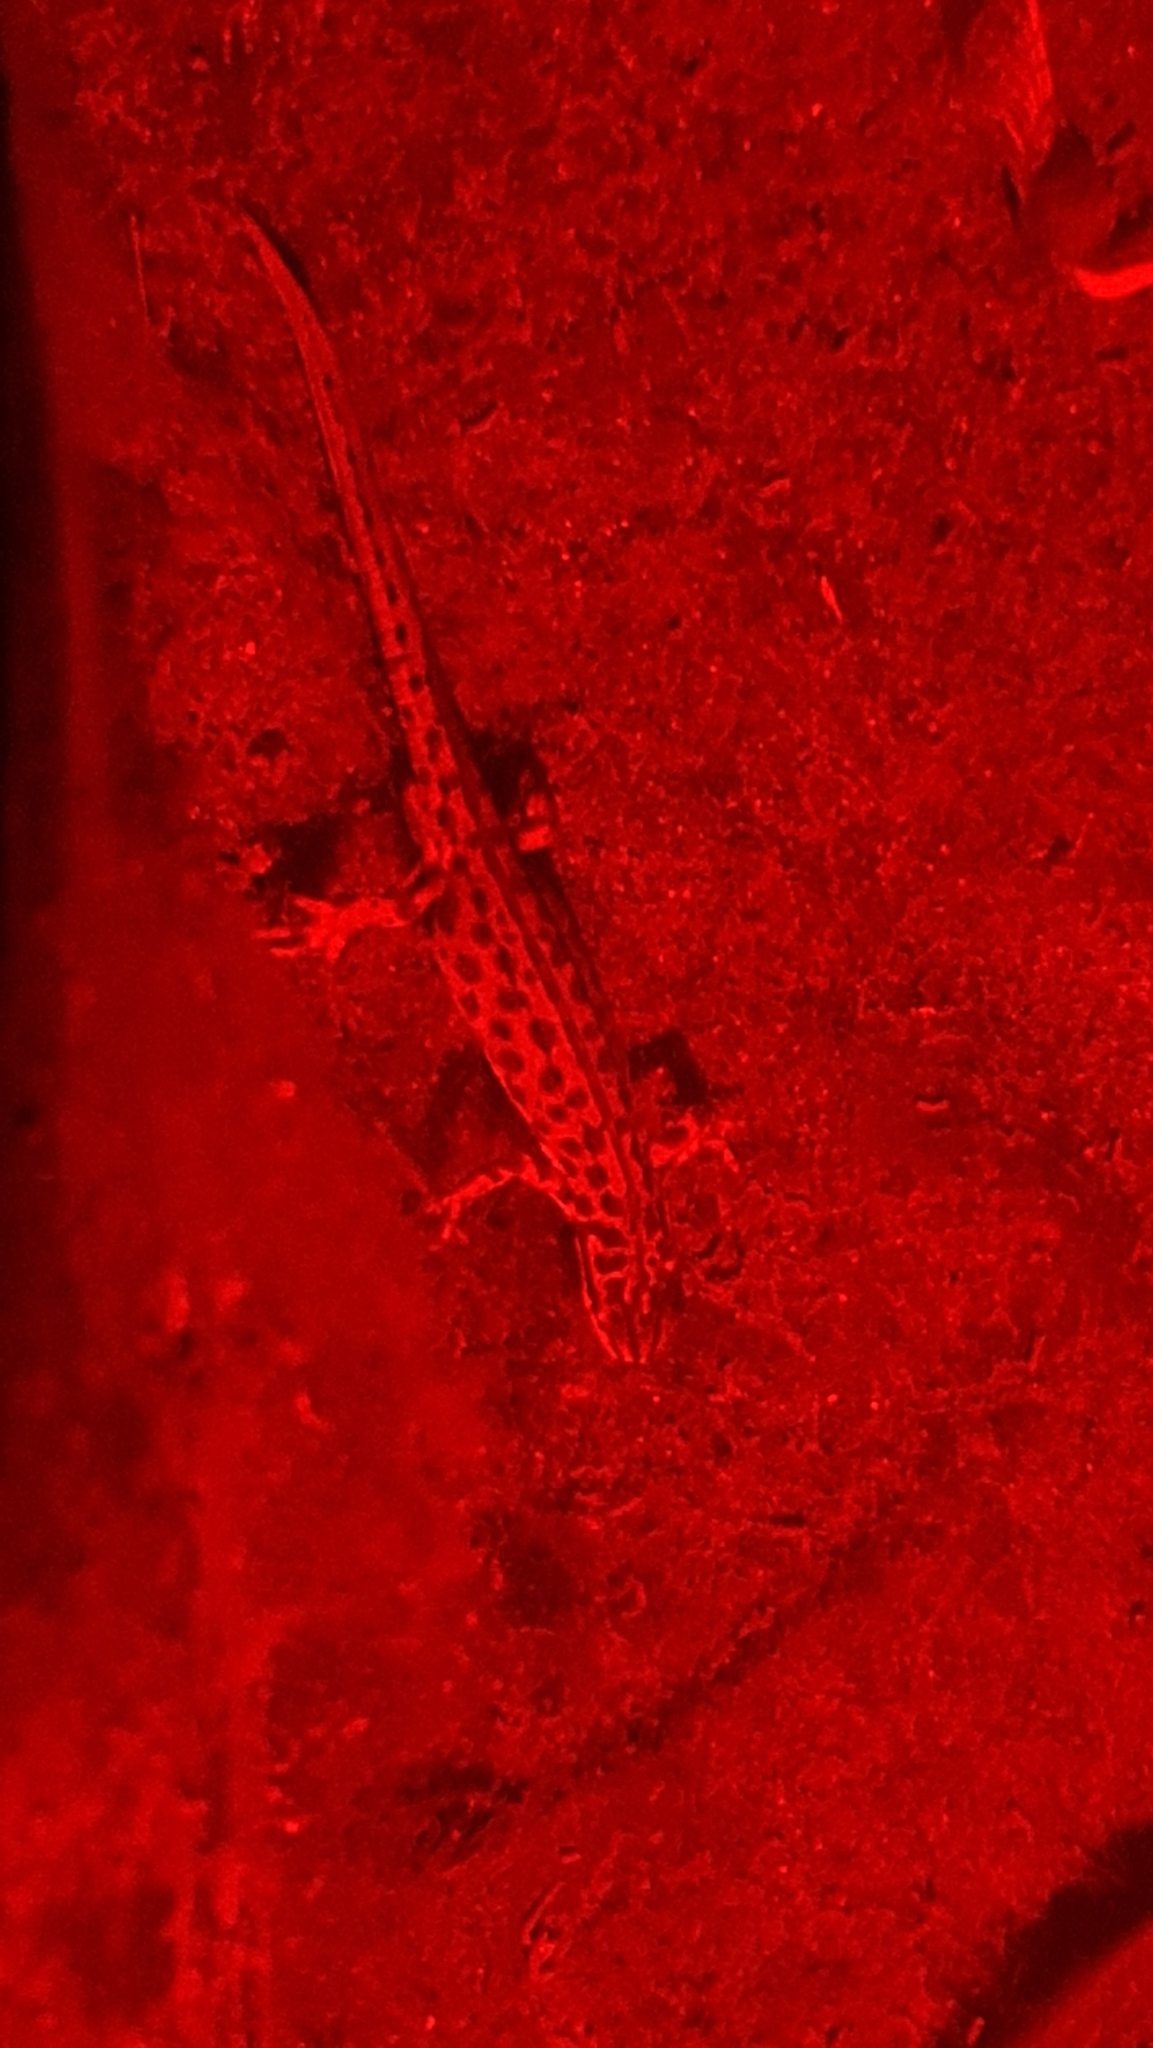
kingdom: Animalia
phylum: Chordata
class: Amphibia
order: Caudata
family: Salamandridae
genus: Lissotriton
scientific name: Lissotriton vulgaris
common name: Smooth newt
